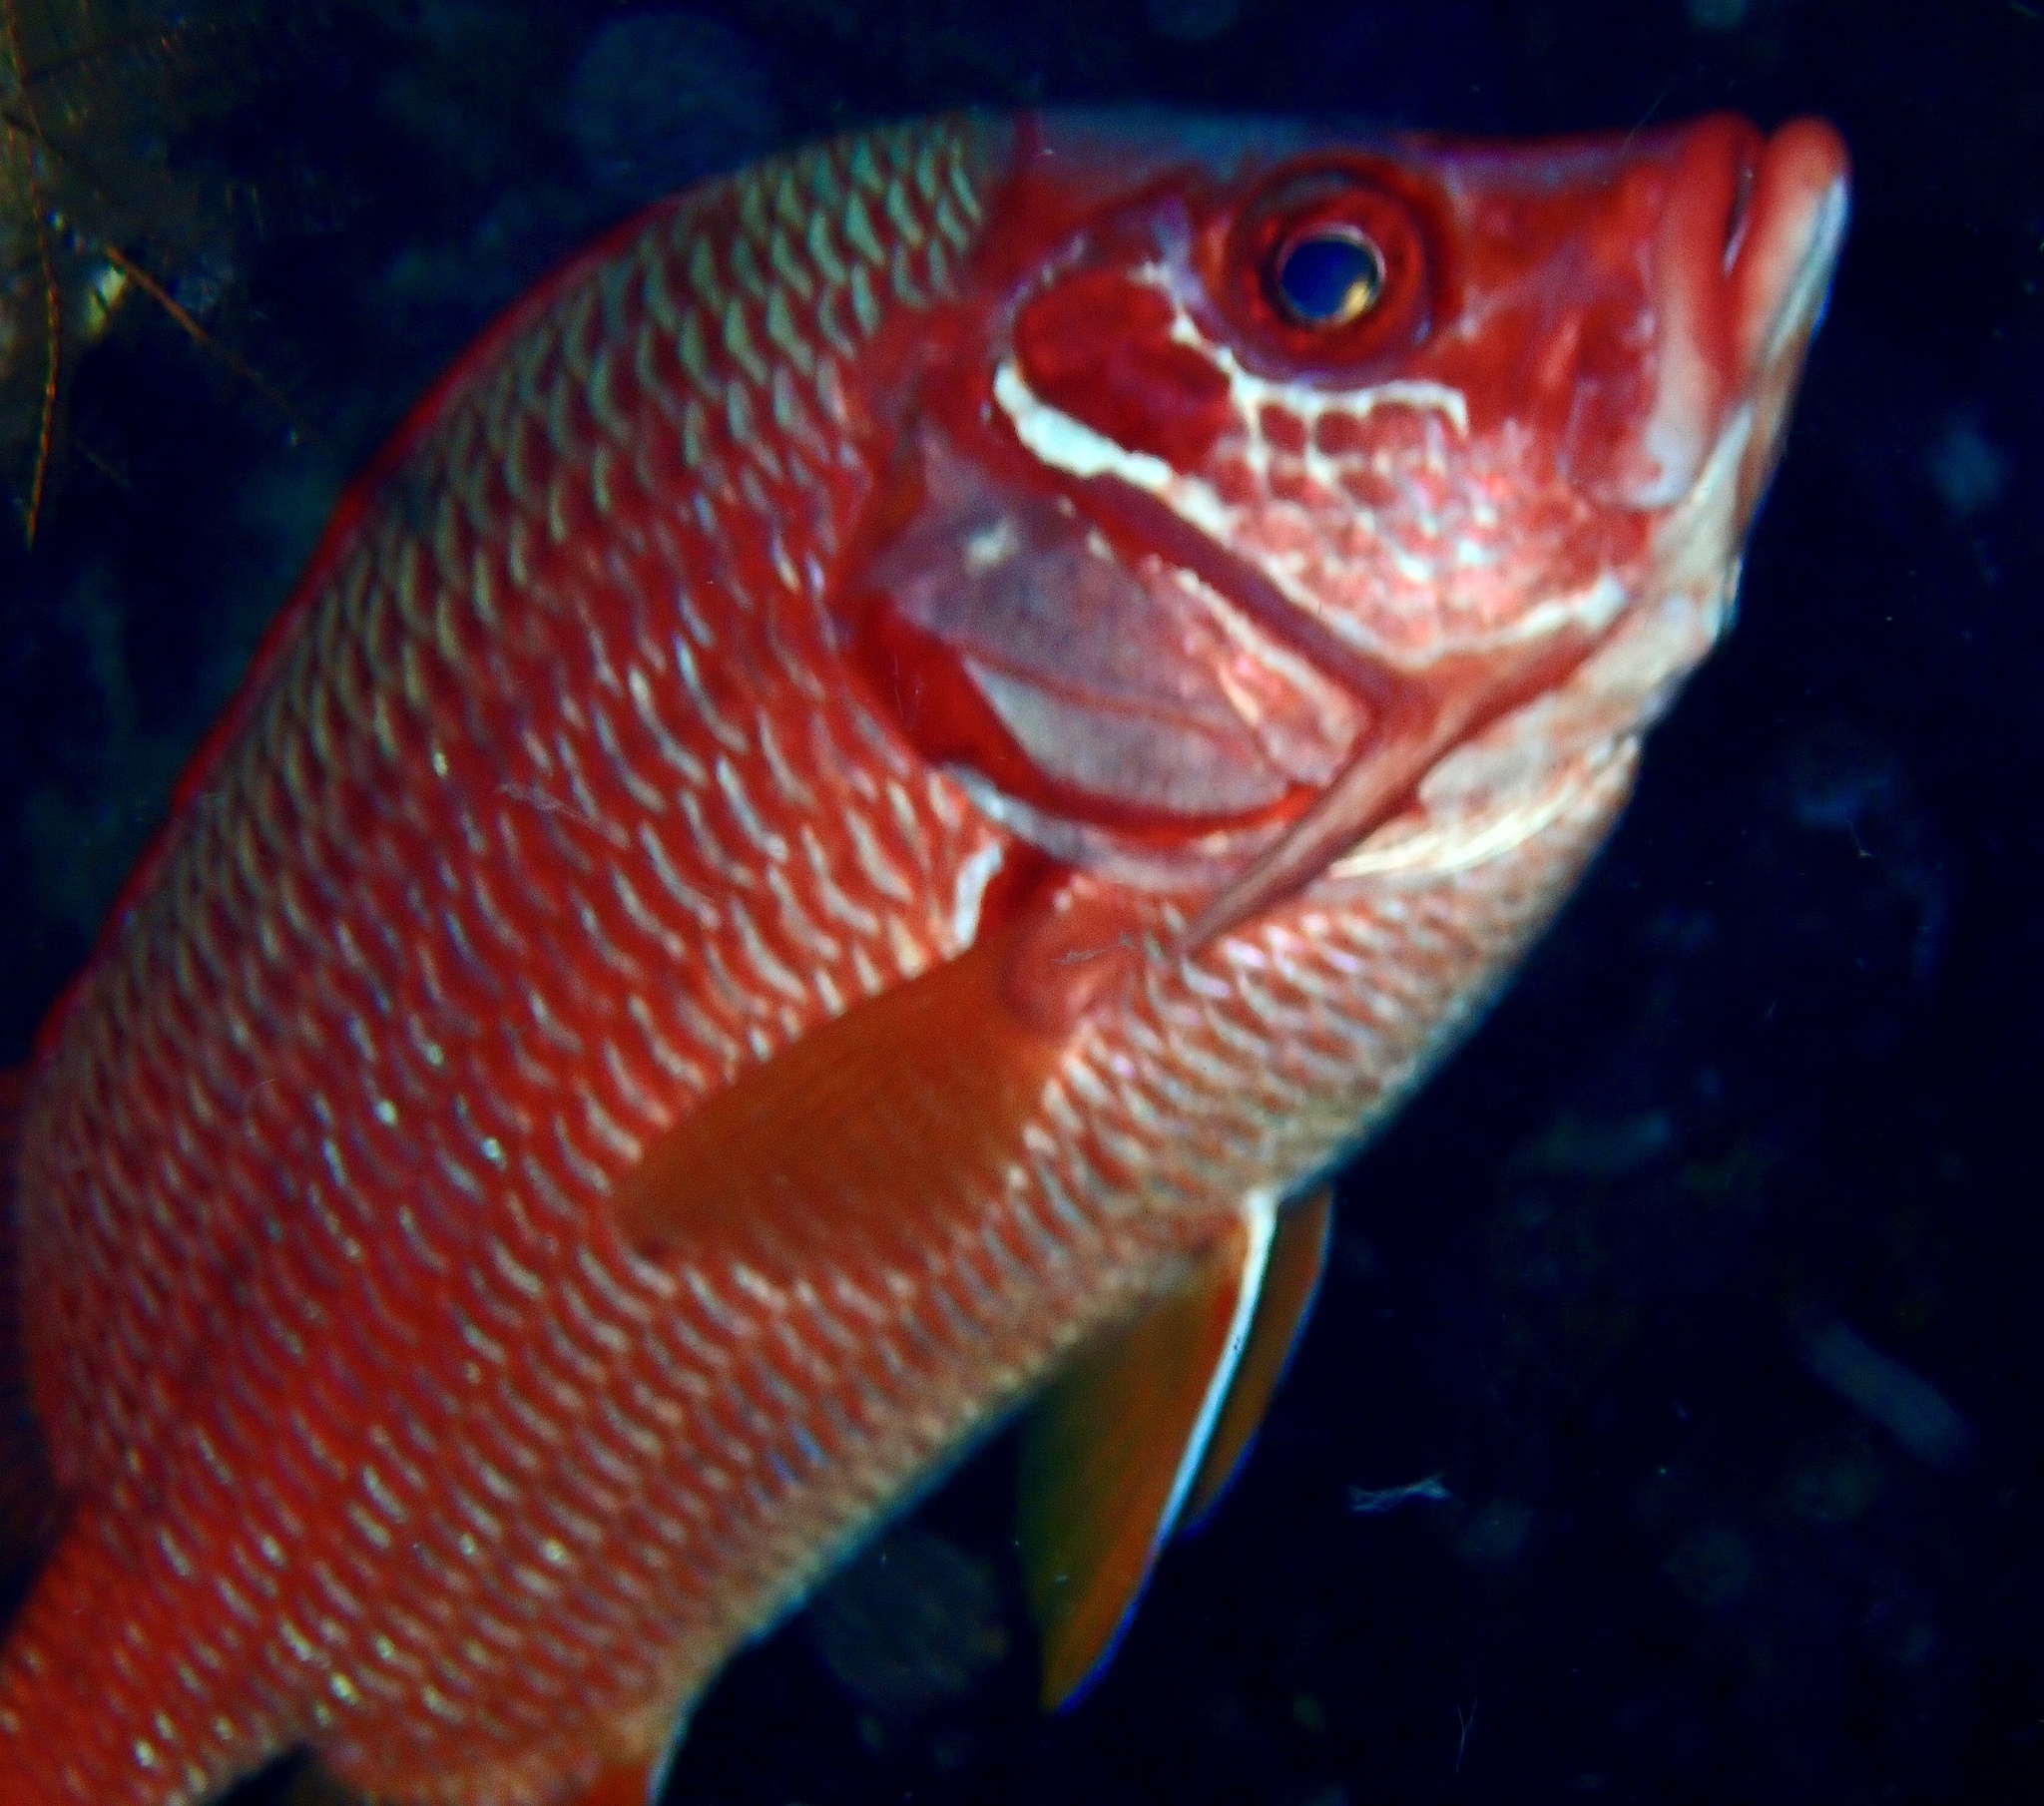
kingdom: Animalia
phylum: Chordata
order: Beryciformes
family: Holocentridae
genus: Sargocentron
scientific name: Sargocentron spiniferum
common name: Giant squirrelfish
